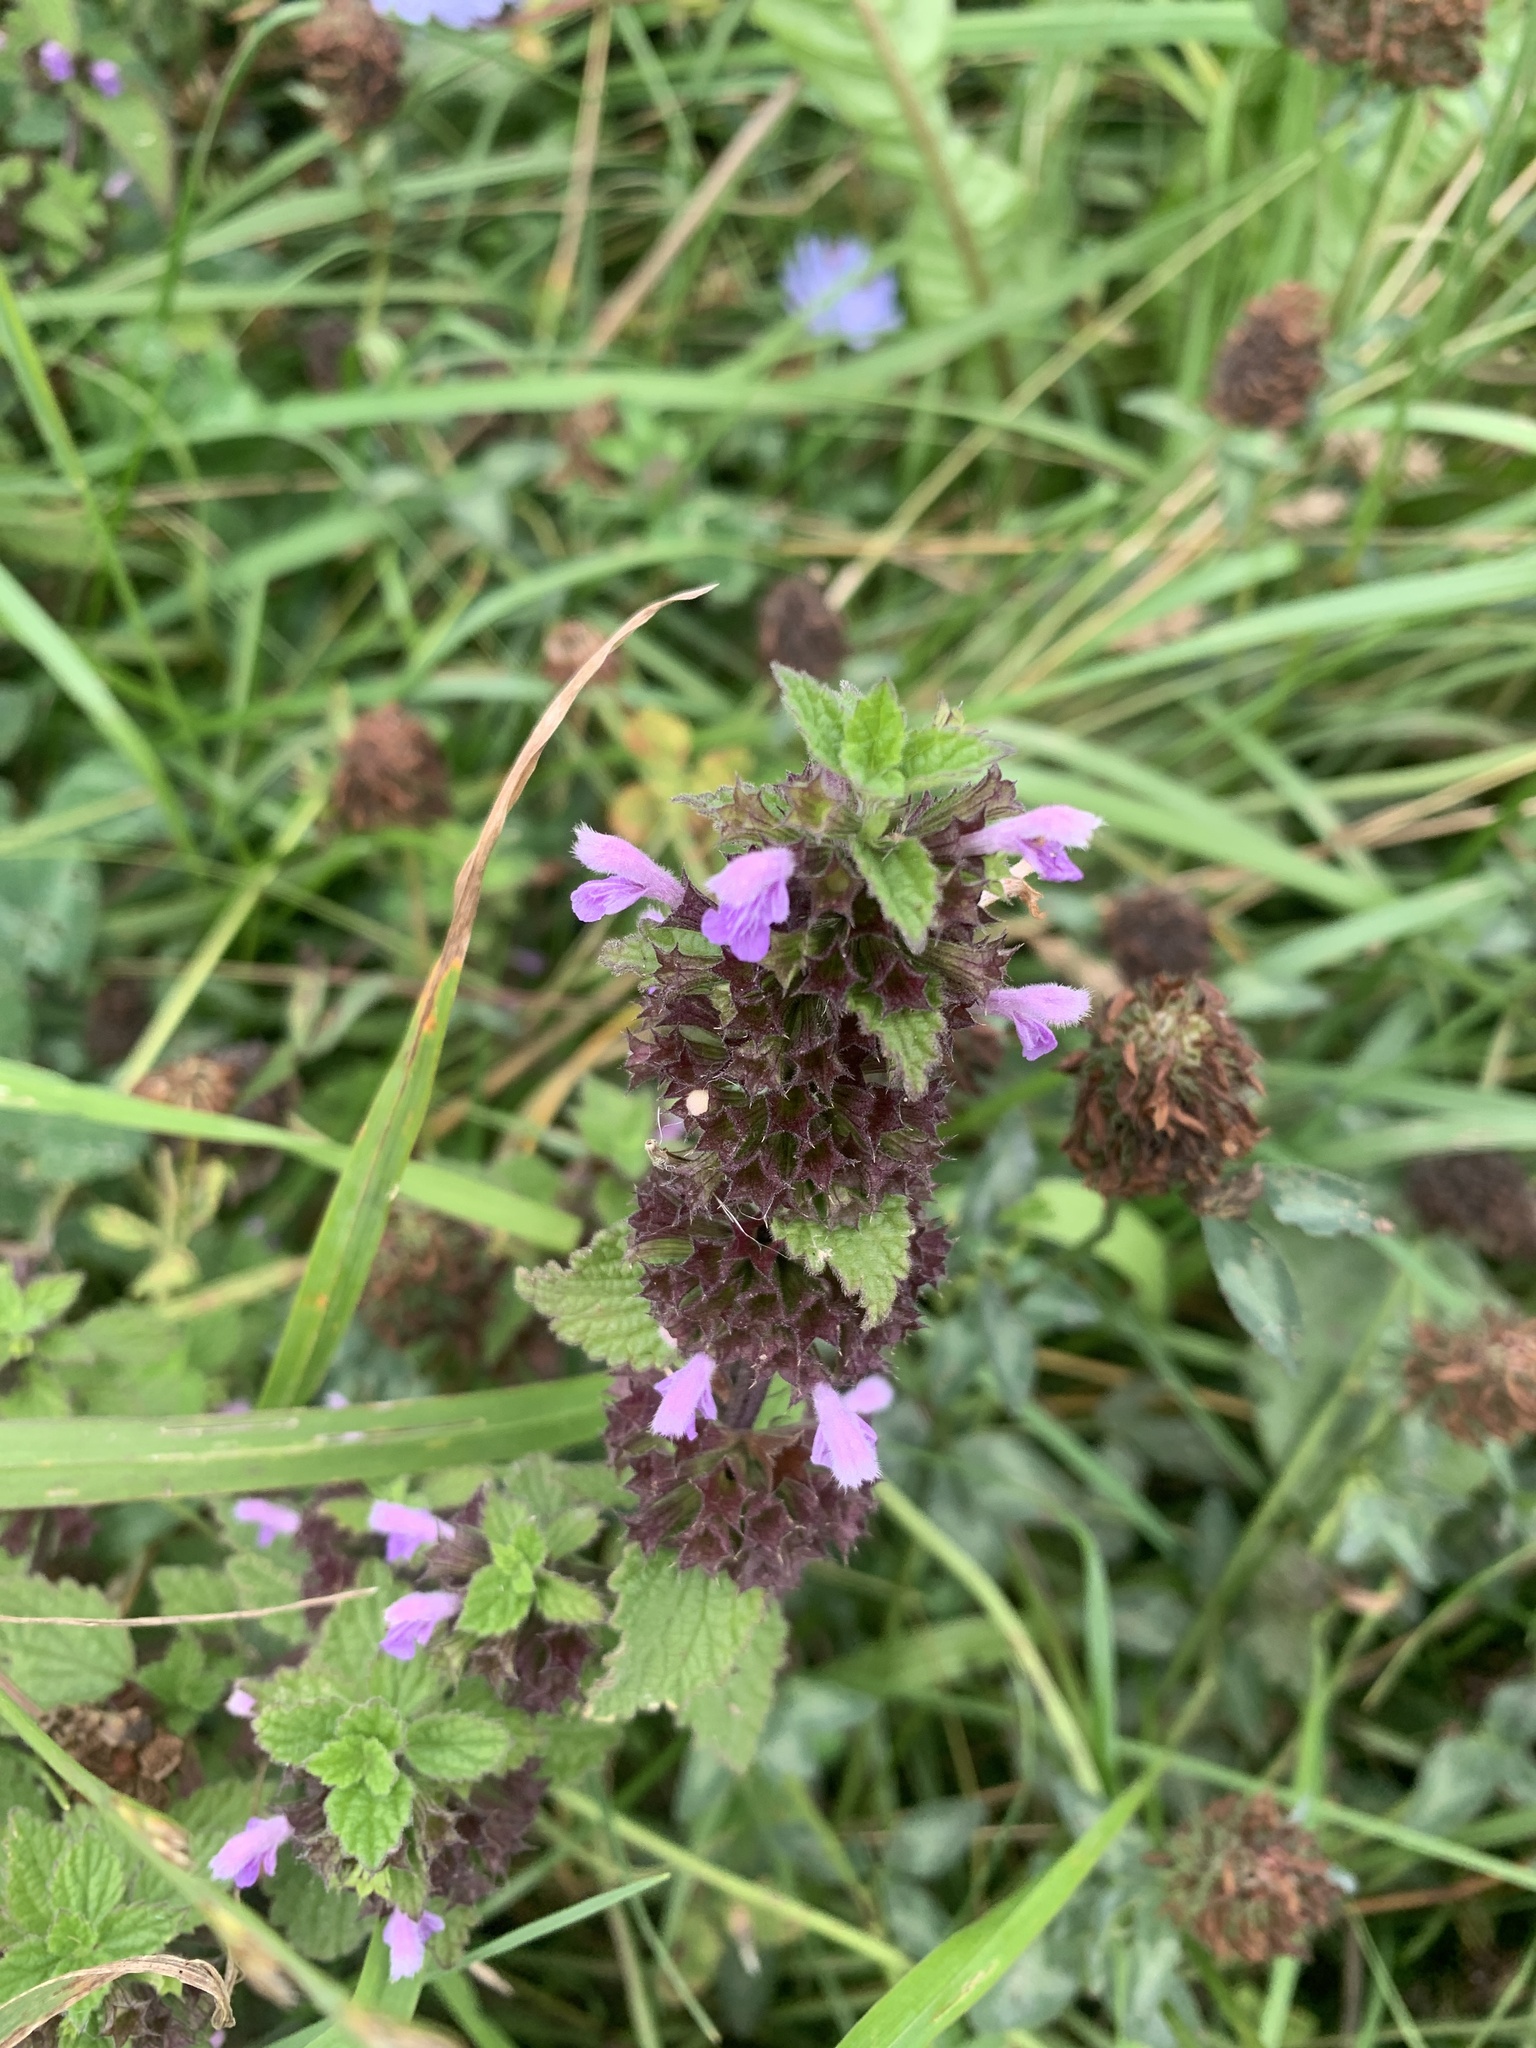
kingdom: Plantae
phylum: Tracheophyta
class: Magnoliopsida
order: Lamiales
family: Lamiaceae
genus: Ballota
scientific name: Ballota nigra
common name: Black horehound
